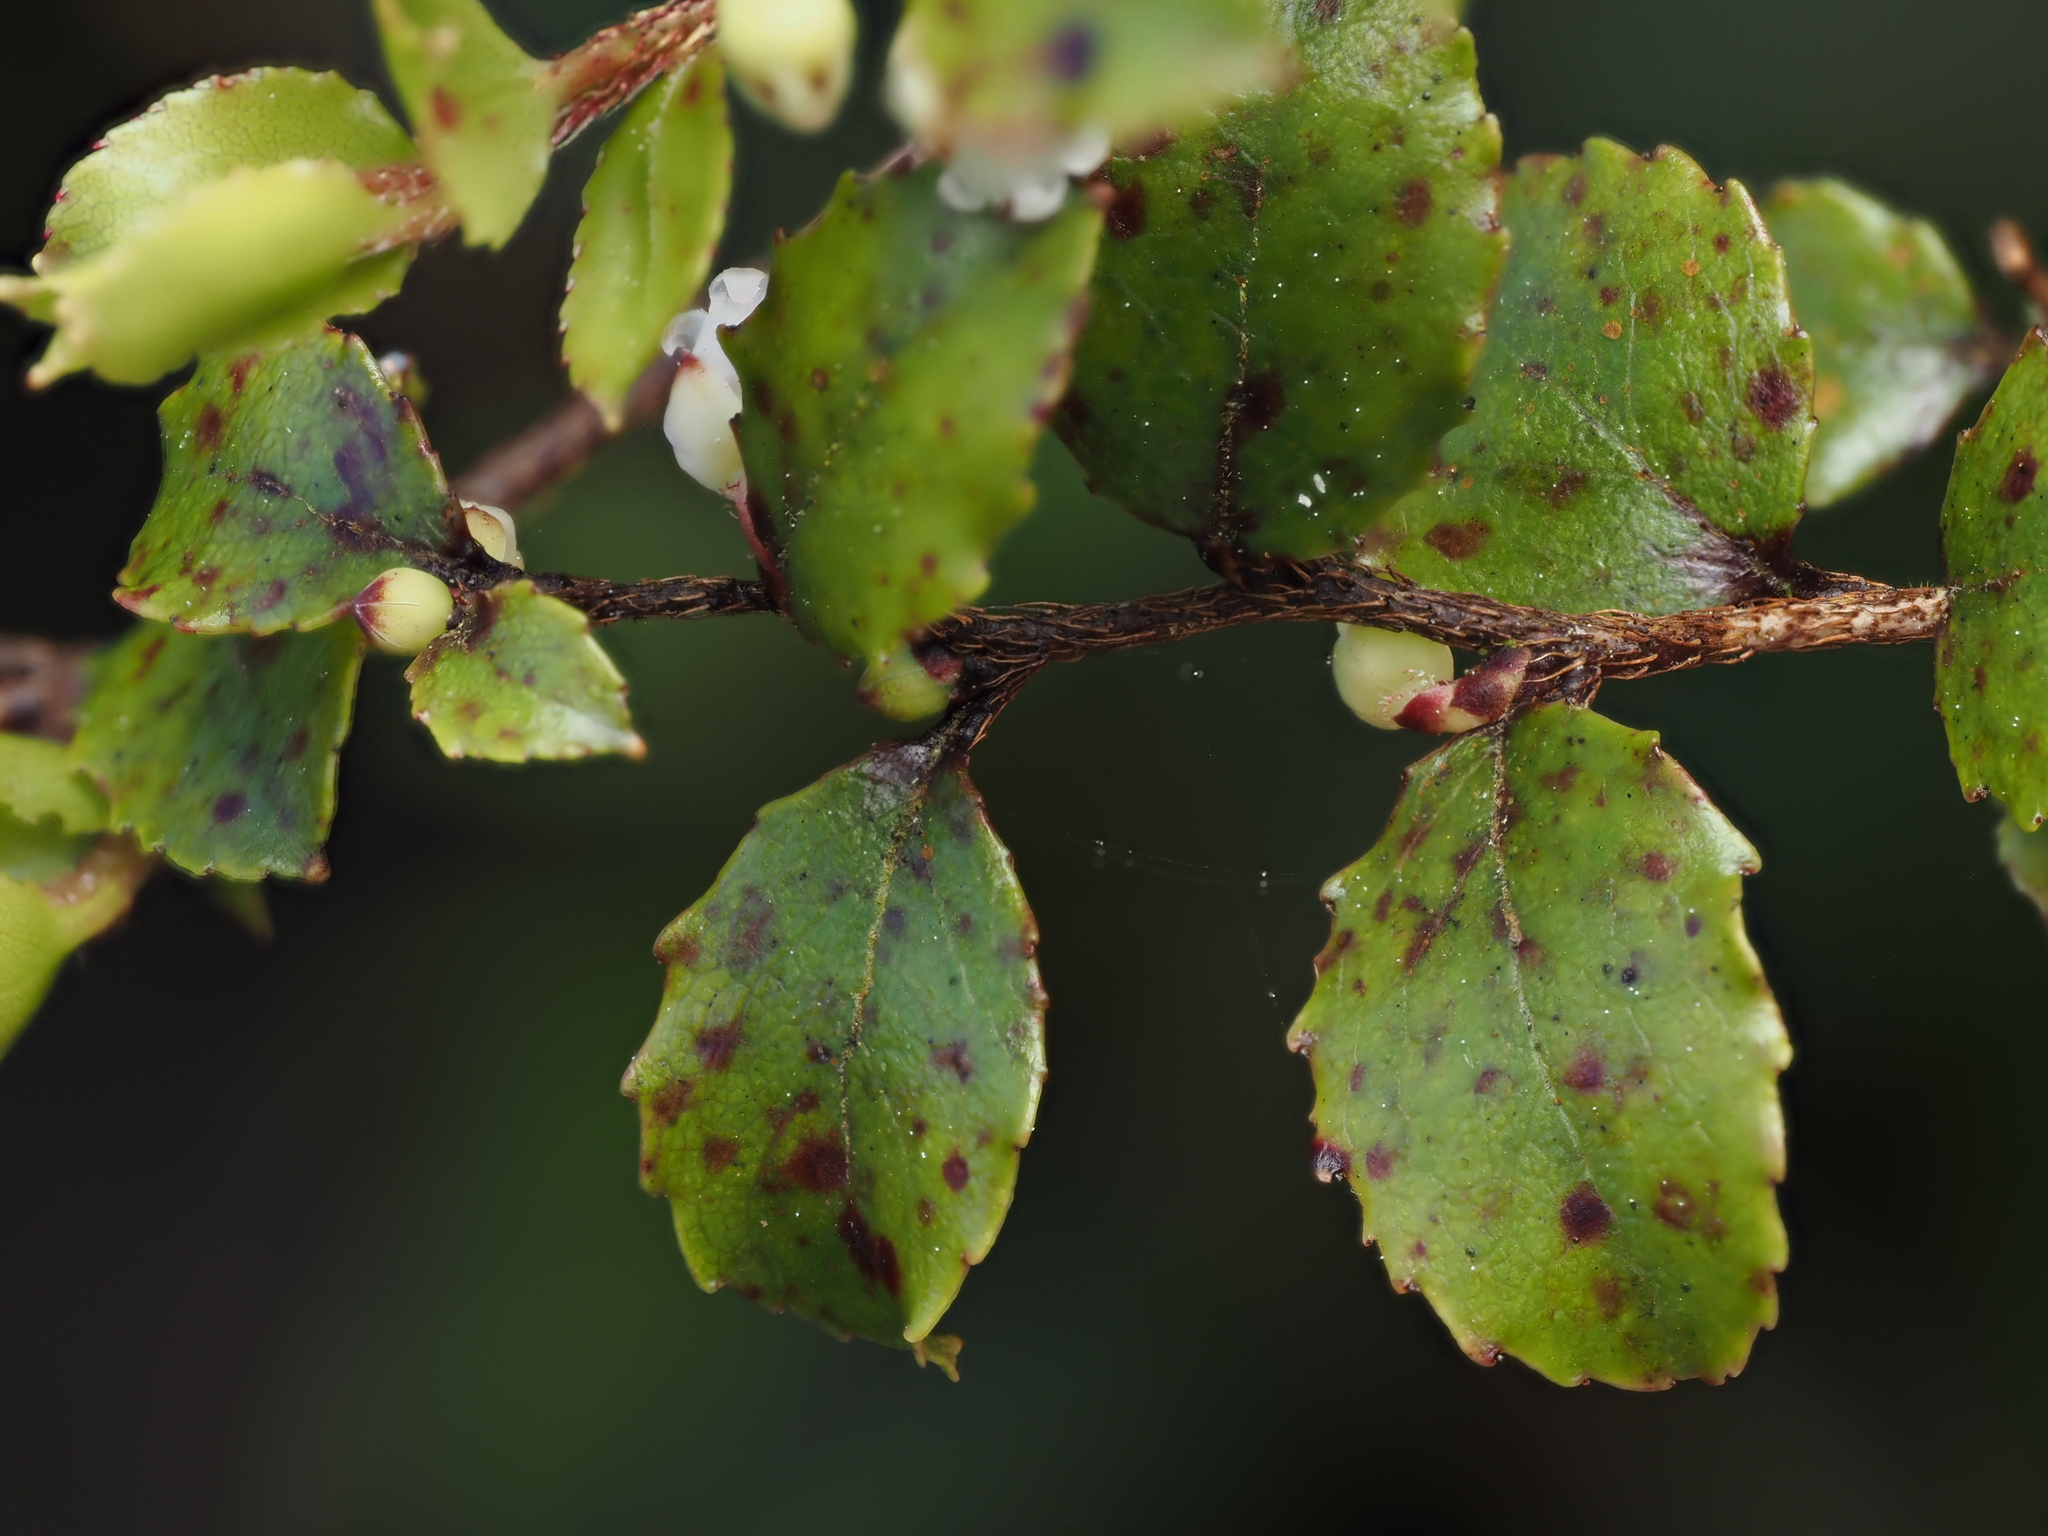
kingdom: Plantae
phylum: Tracheophyta
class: Magnoliopsida
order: Ericales
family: Ericaceae
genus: Gaultheria
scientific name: Gaultheria antipoda
